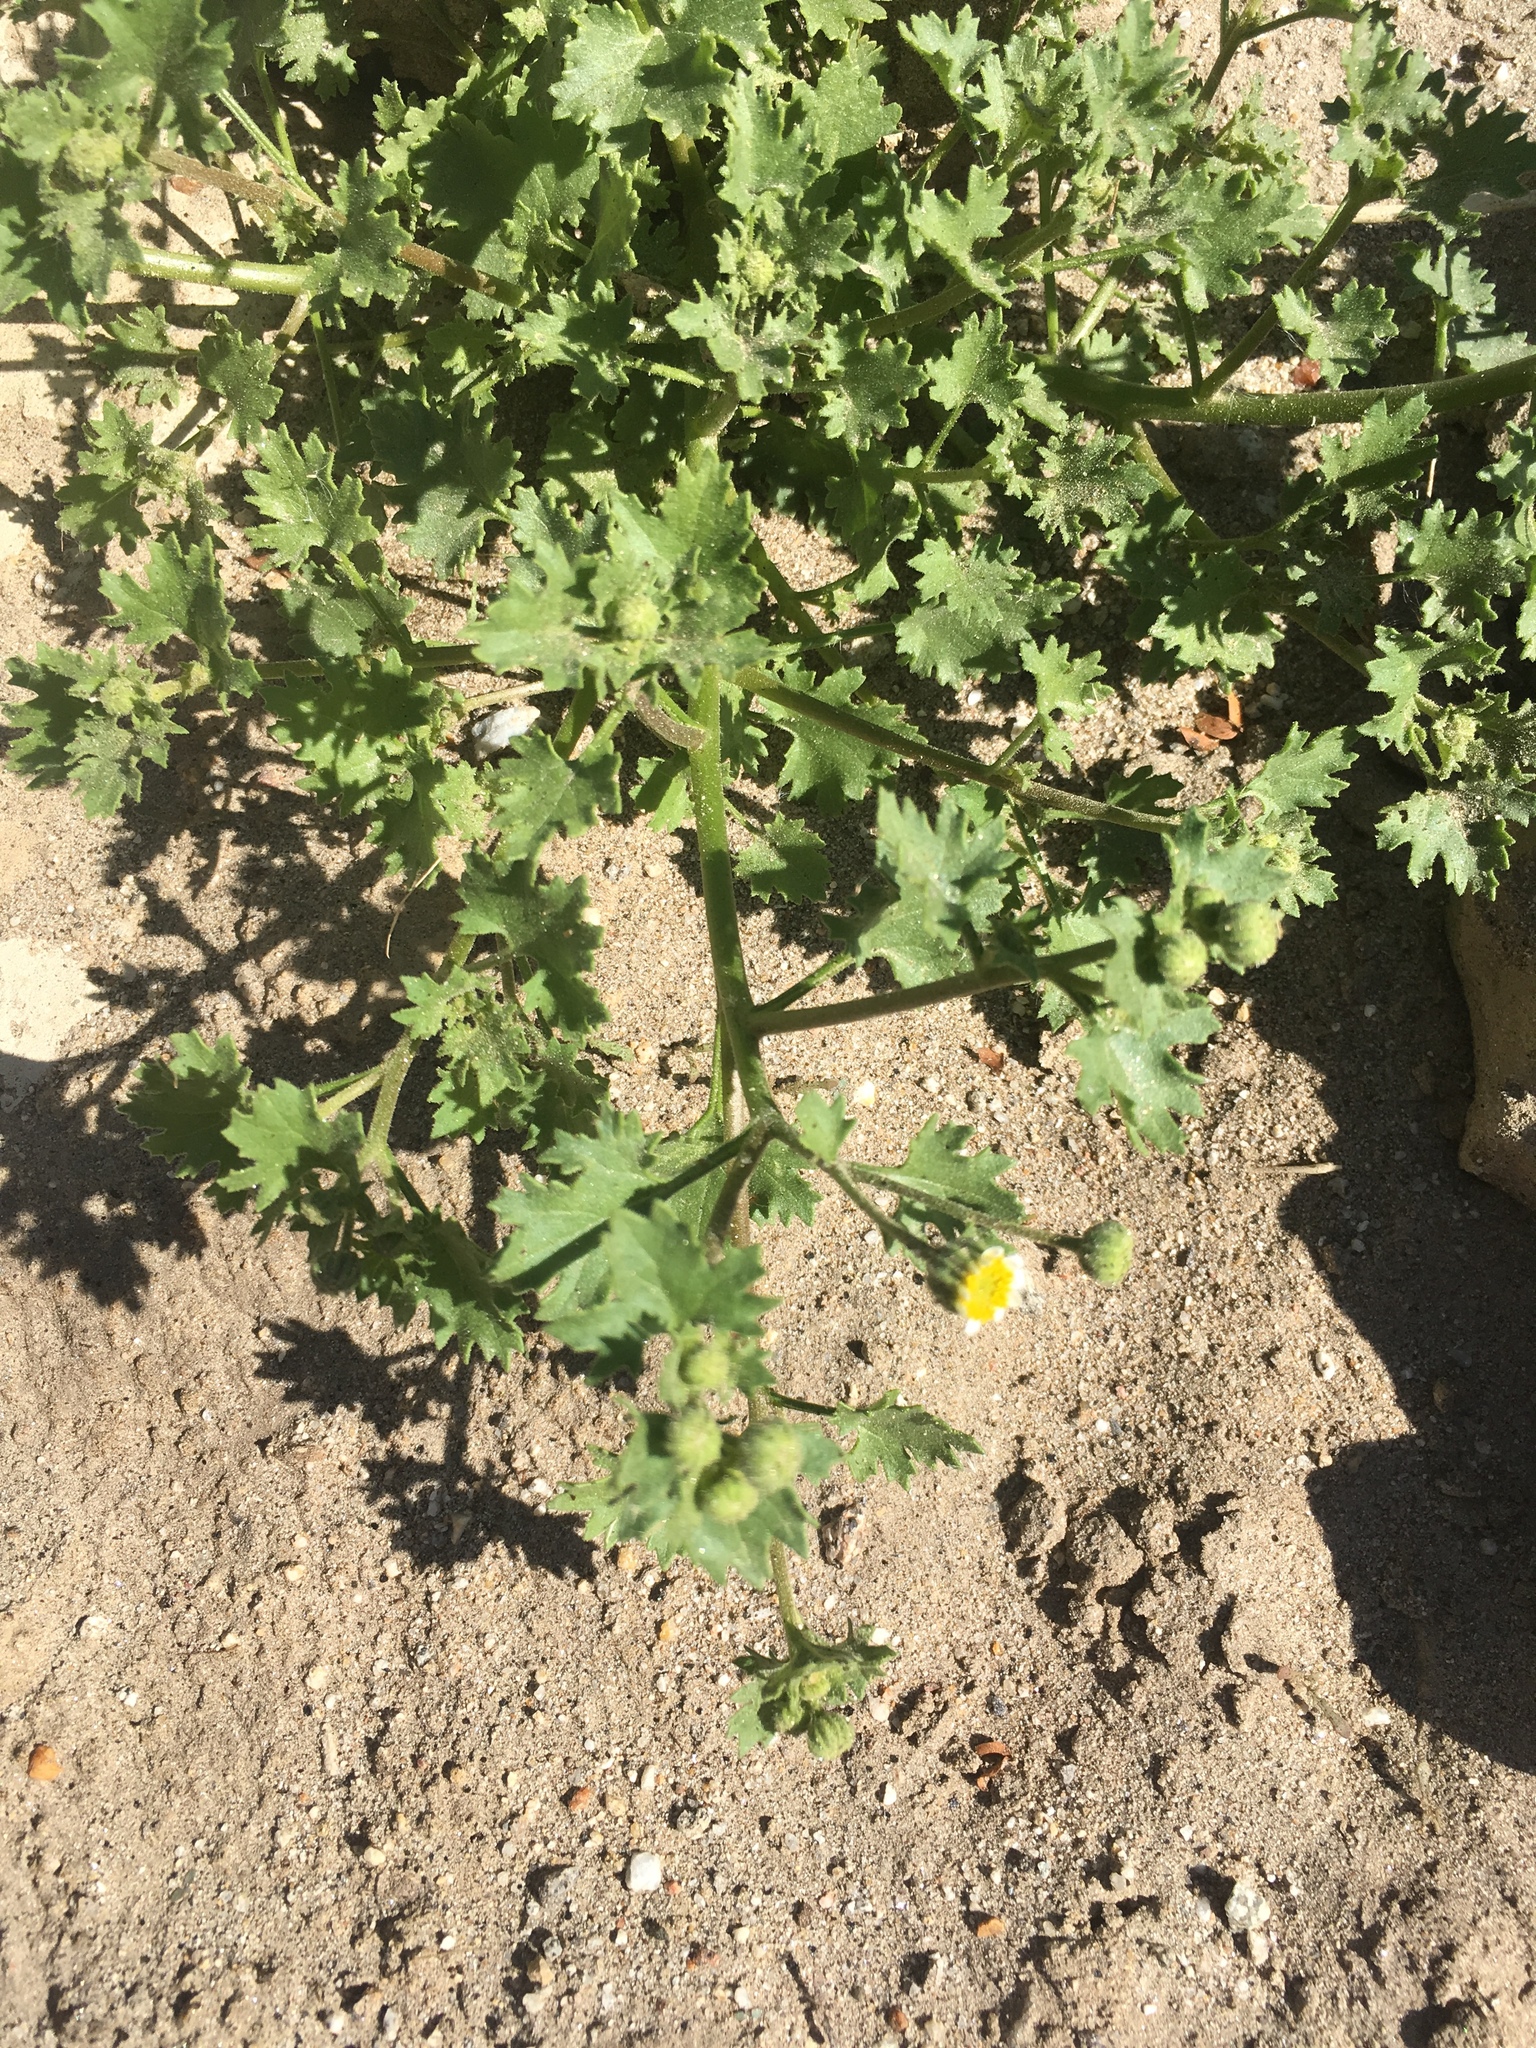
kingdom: Plantae
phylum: Tracheophyta
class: Magnoliopsida
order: Asterales
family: Asteraceae
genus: Laphamia
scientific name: Laphamia emoryi
